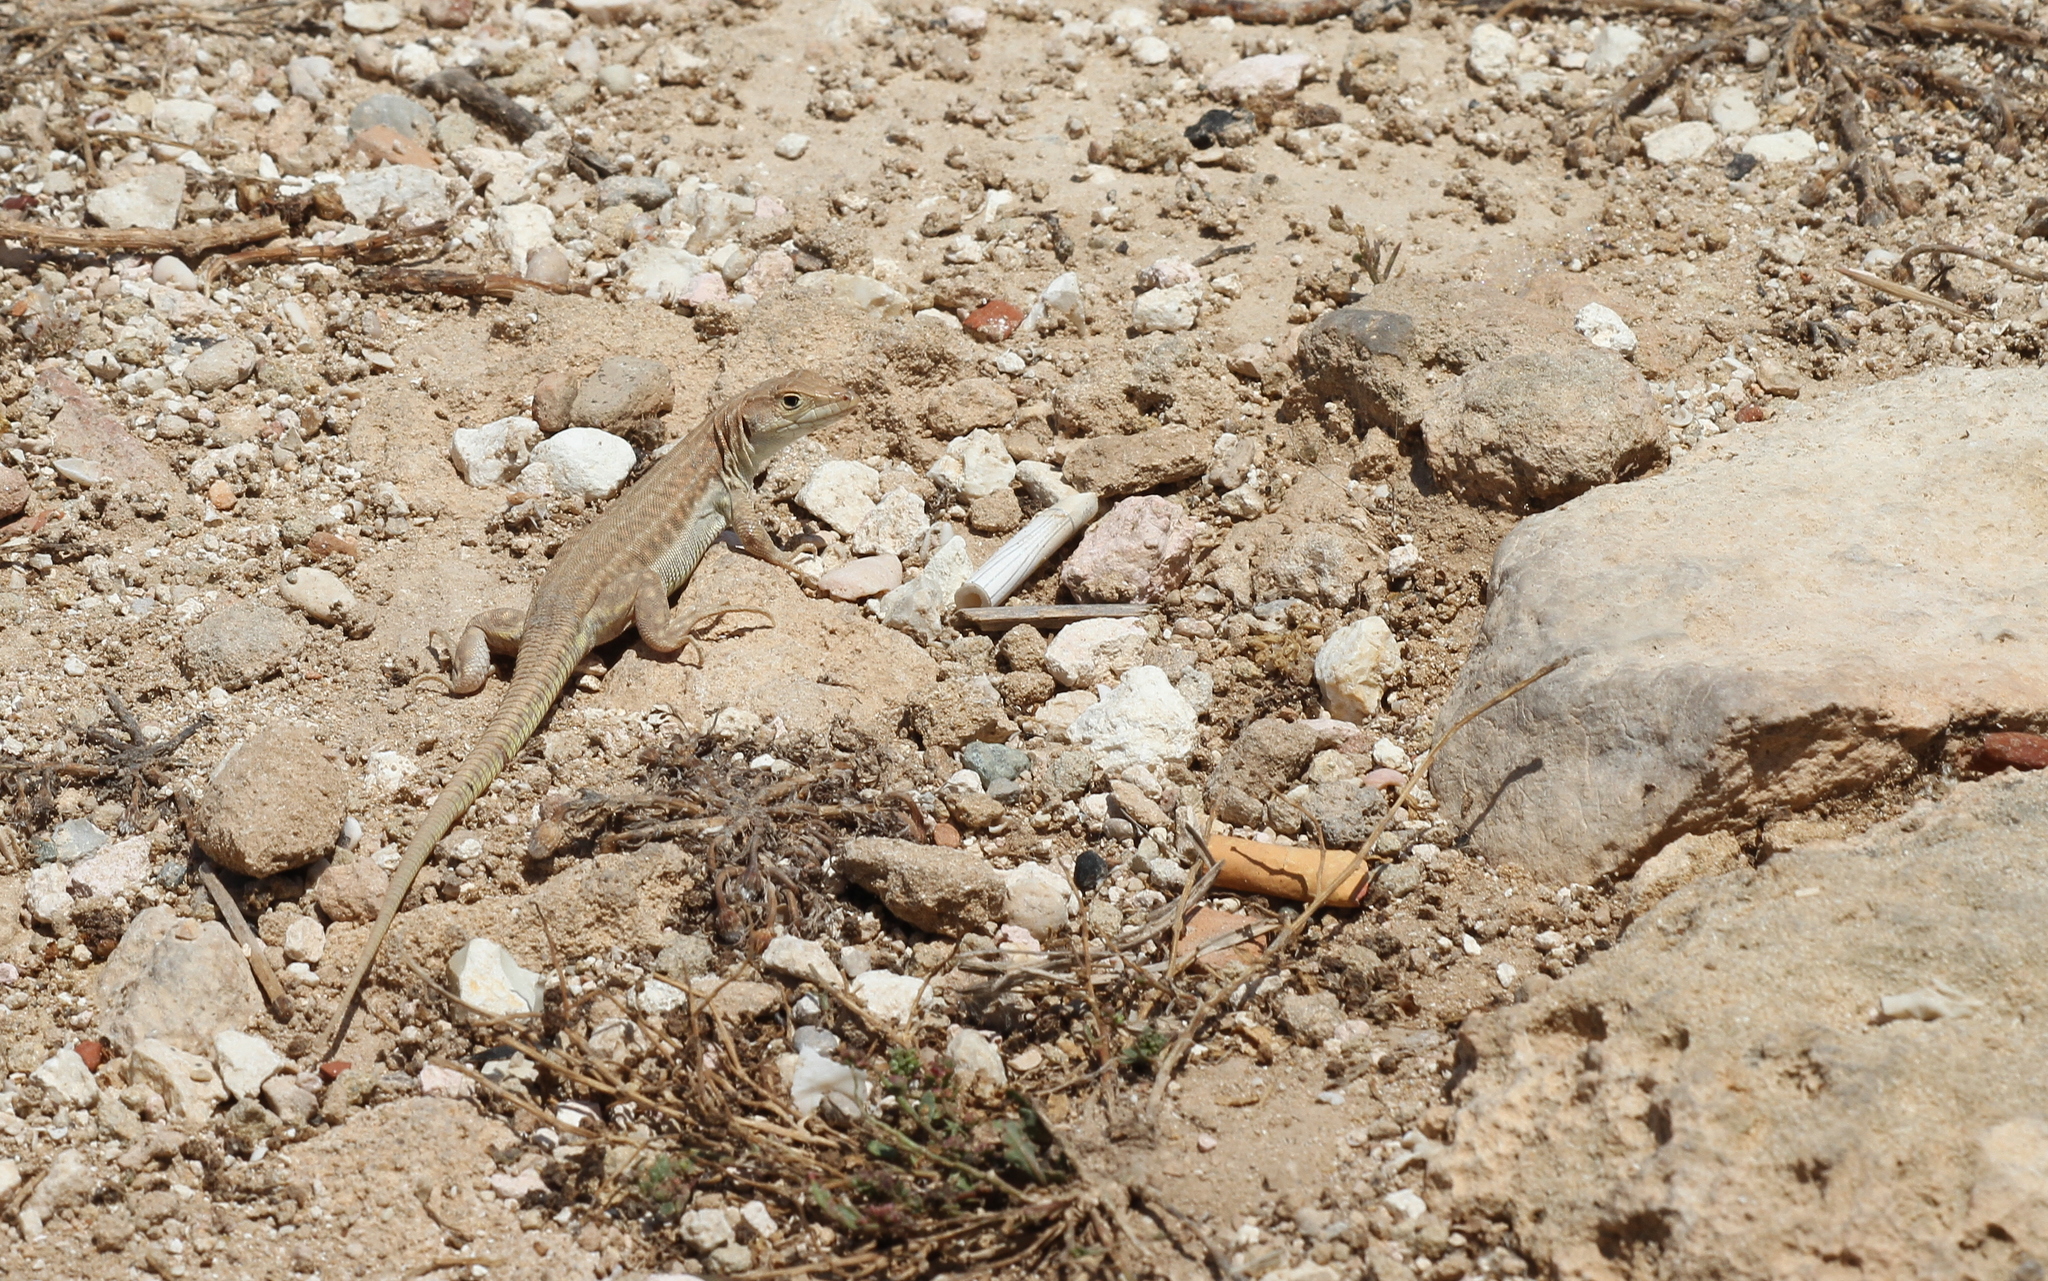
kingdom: Animalia
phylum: Chordata
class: Squamata
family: Lacertidae
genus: Acanthodactylus
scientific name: Acanthodactylus schreiberi
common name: Schreiber's fringe-fingered lizard
